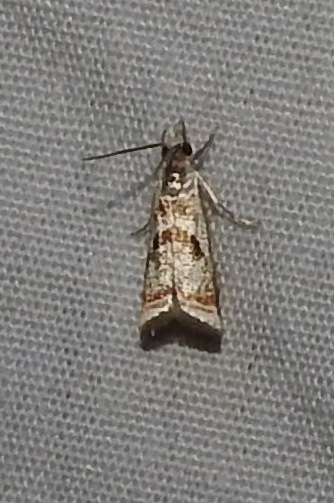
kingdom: Animalia
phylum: Arthropoda
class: Insecta
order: Lepidoptera
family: Crambidae
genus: Microcrambus
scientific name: Microcrambus elegans
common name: Elegant grass-veneer
